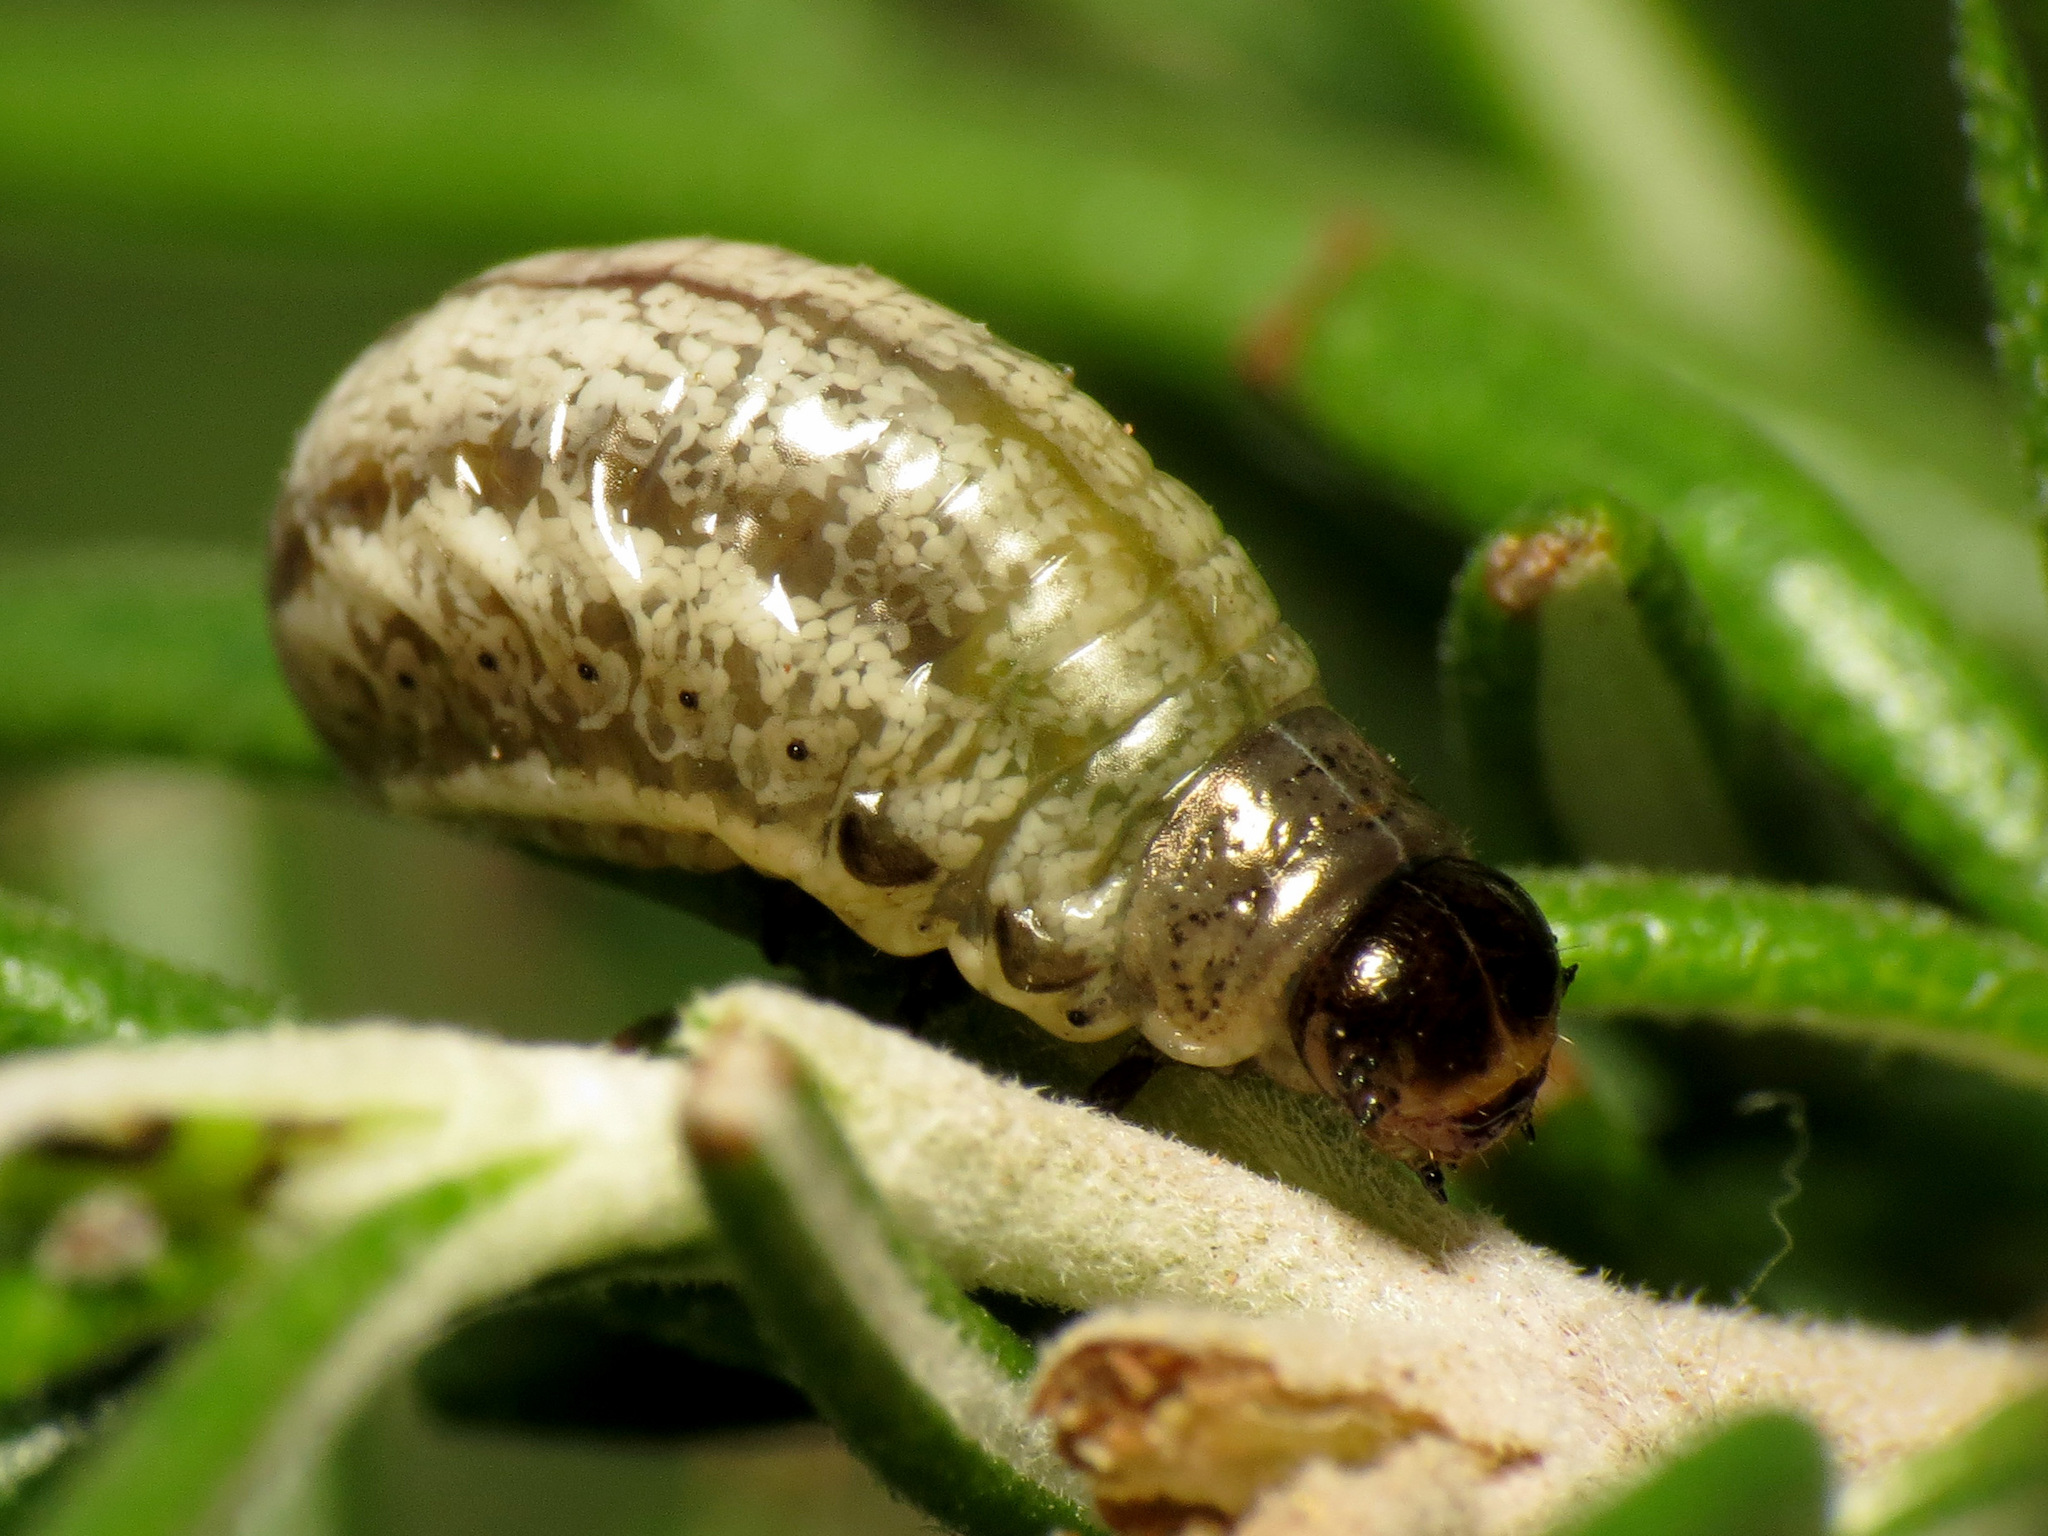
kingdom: Animalia
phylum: Arthropoda
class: Insecta
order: Coleoptera
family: Chrysomelidae
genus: Chrysolina
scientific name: Chrysolina americana
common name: Rosemary beetle
